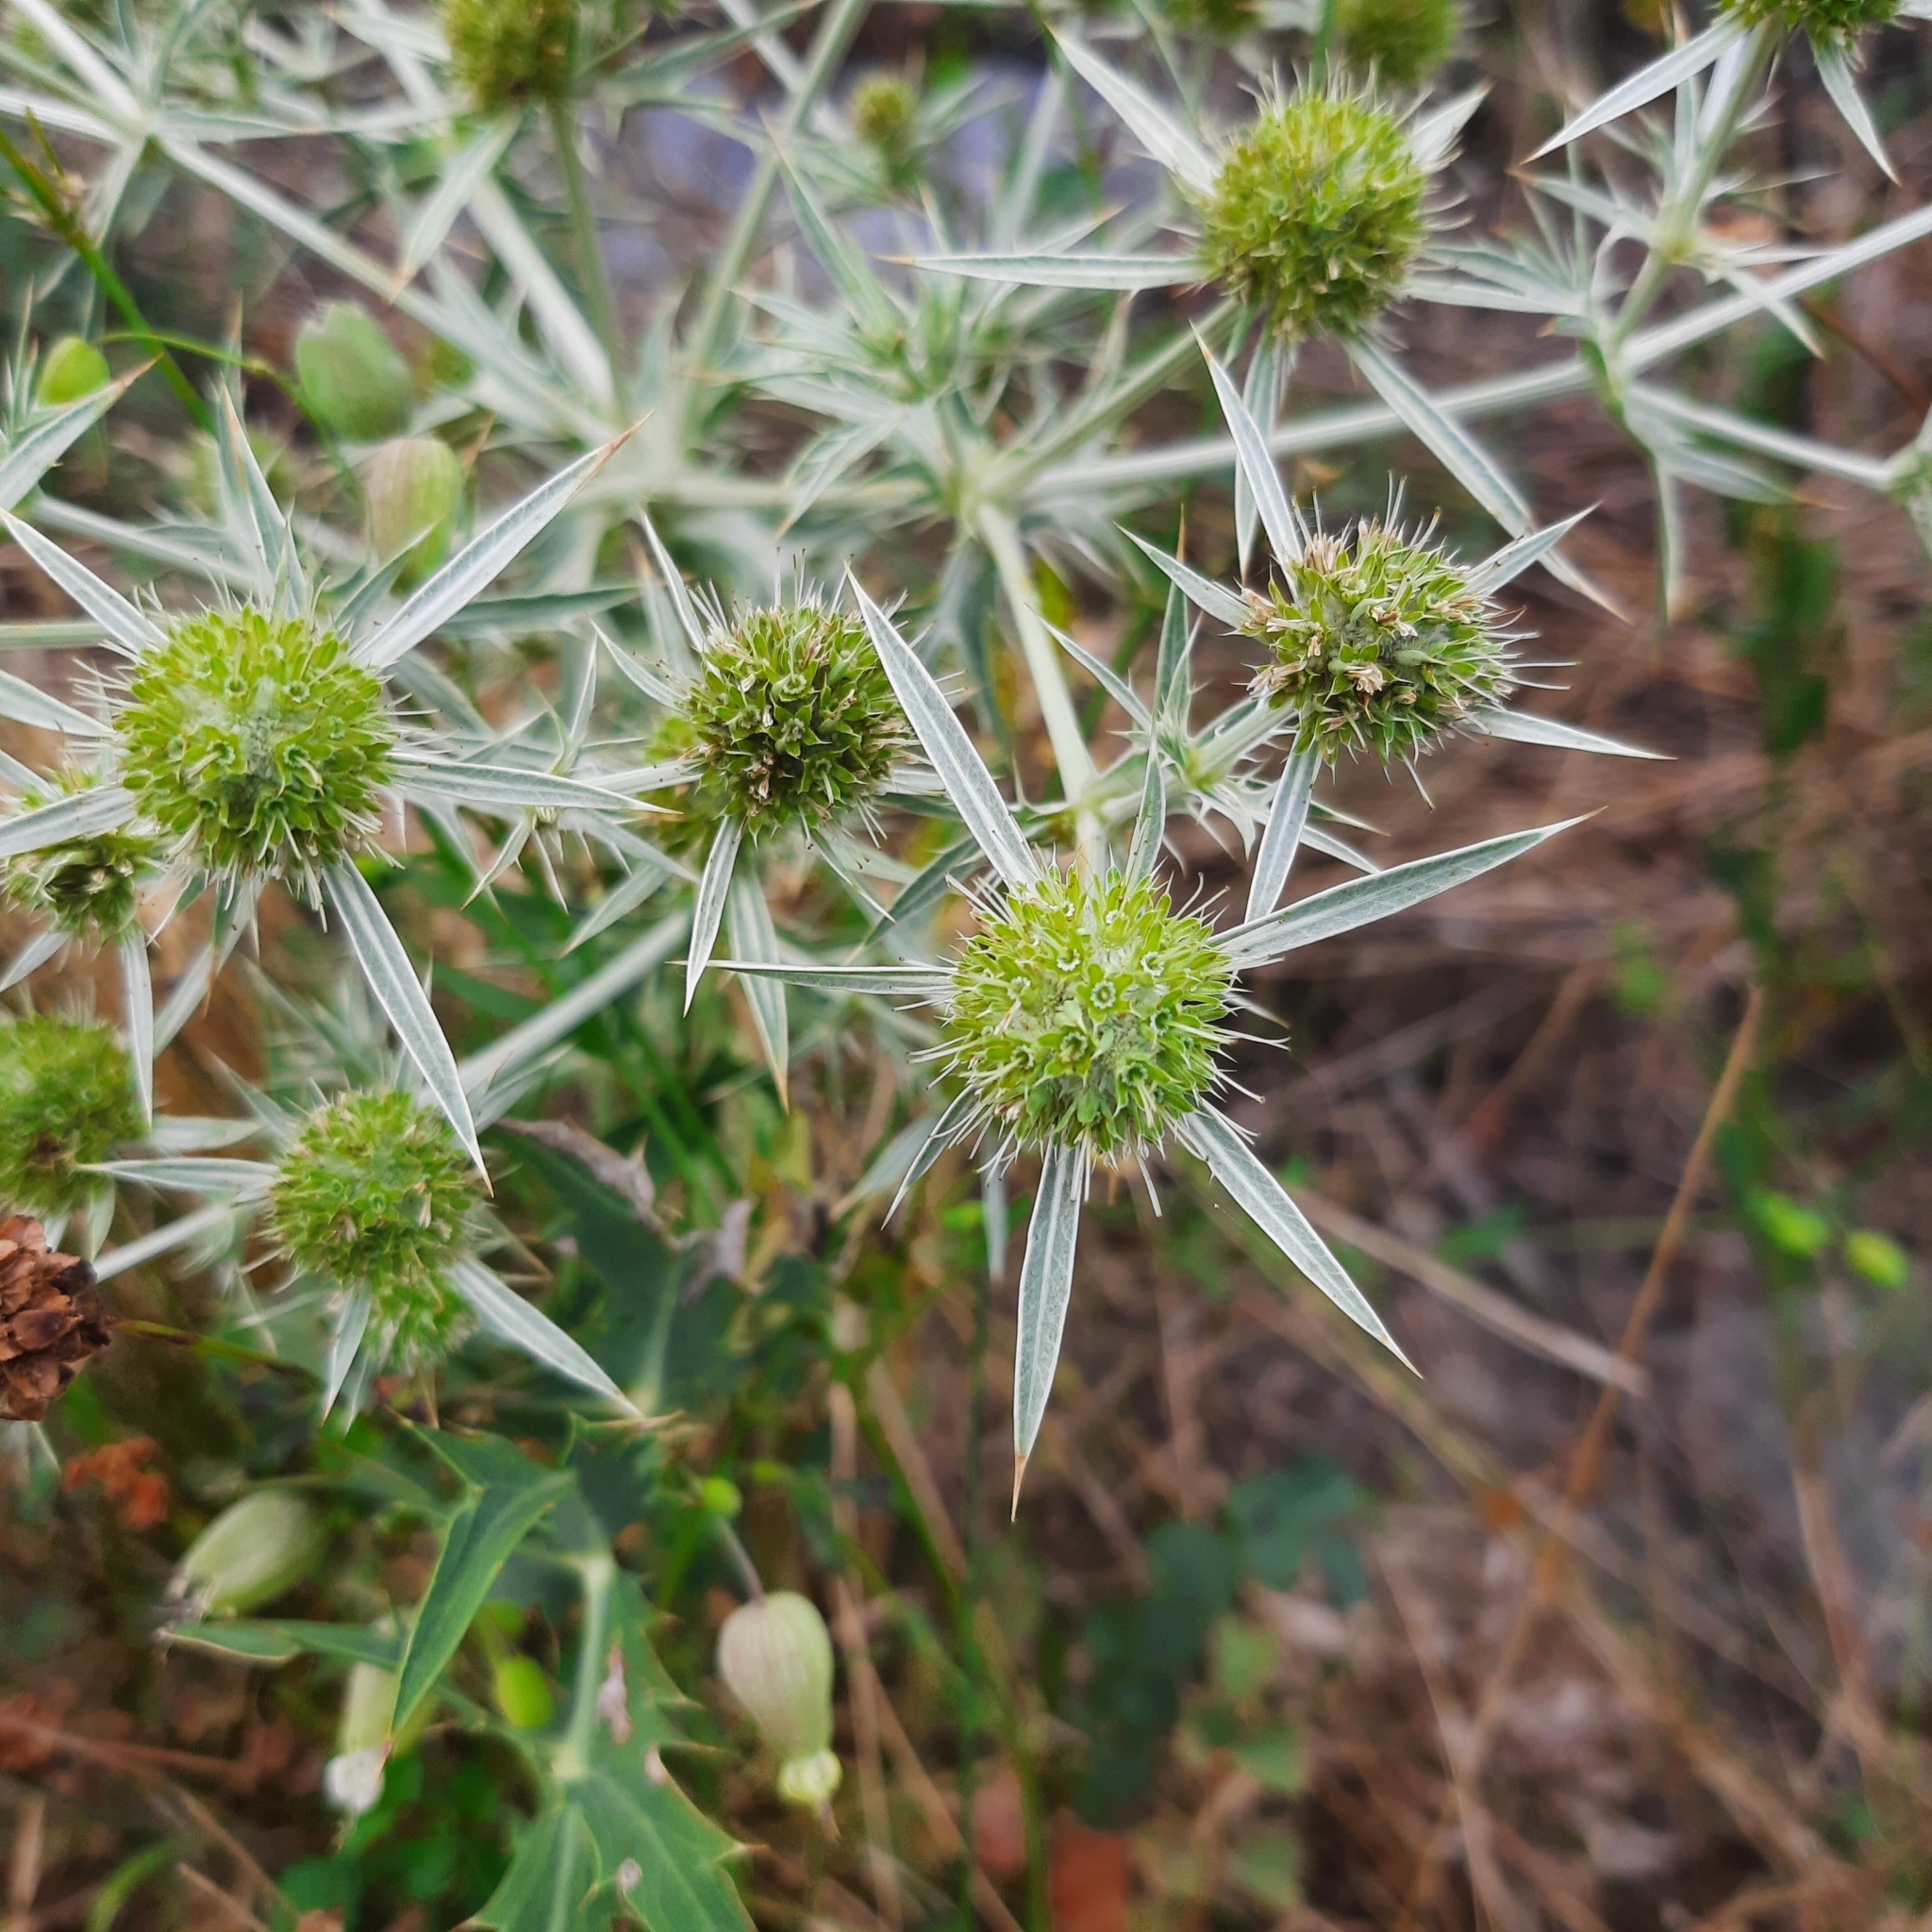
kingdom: Plantae
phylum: Tracheophyta
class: Magnoliopsida
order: Apiales
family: Apiaceae
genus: Eryngium
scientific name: Eryngium campestre
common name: Field eryngo
